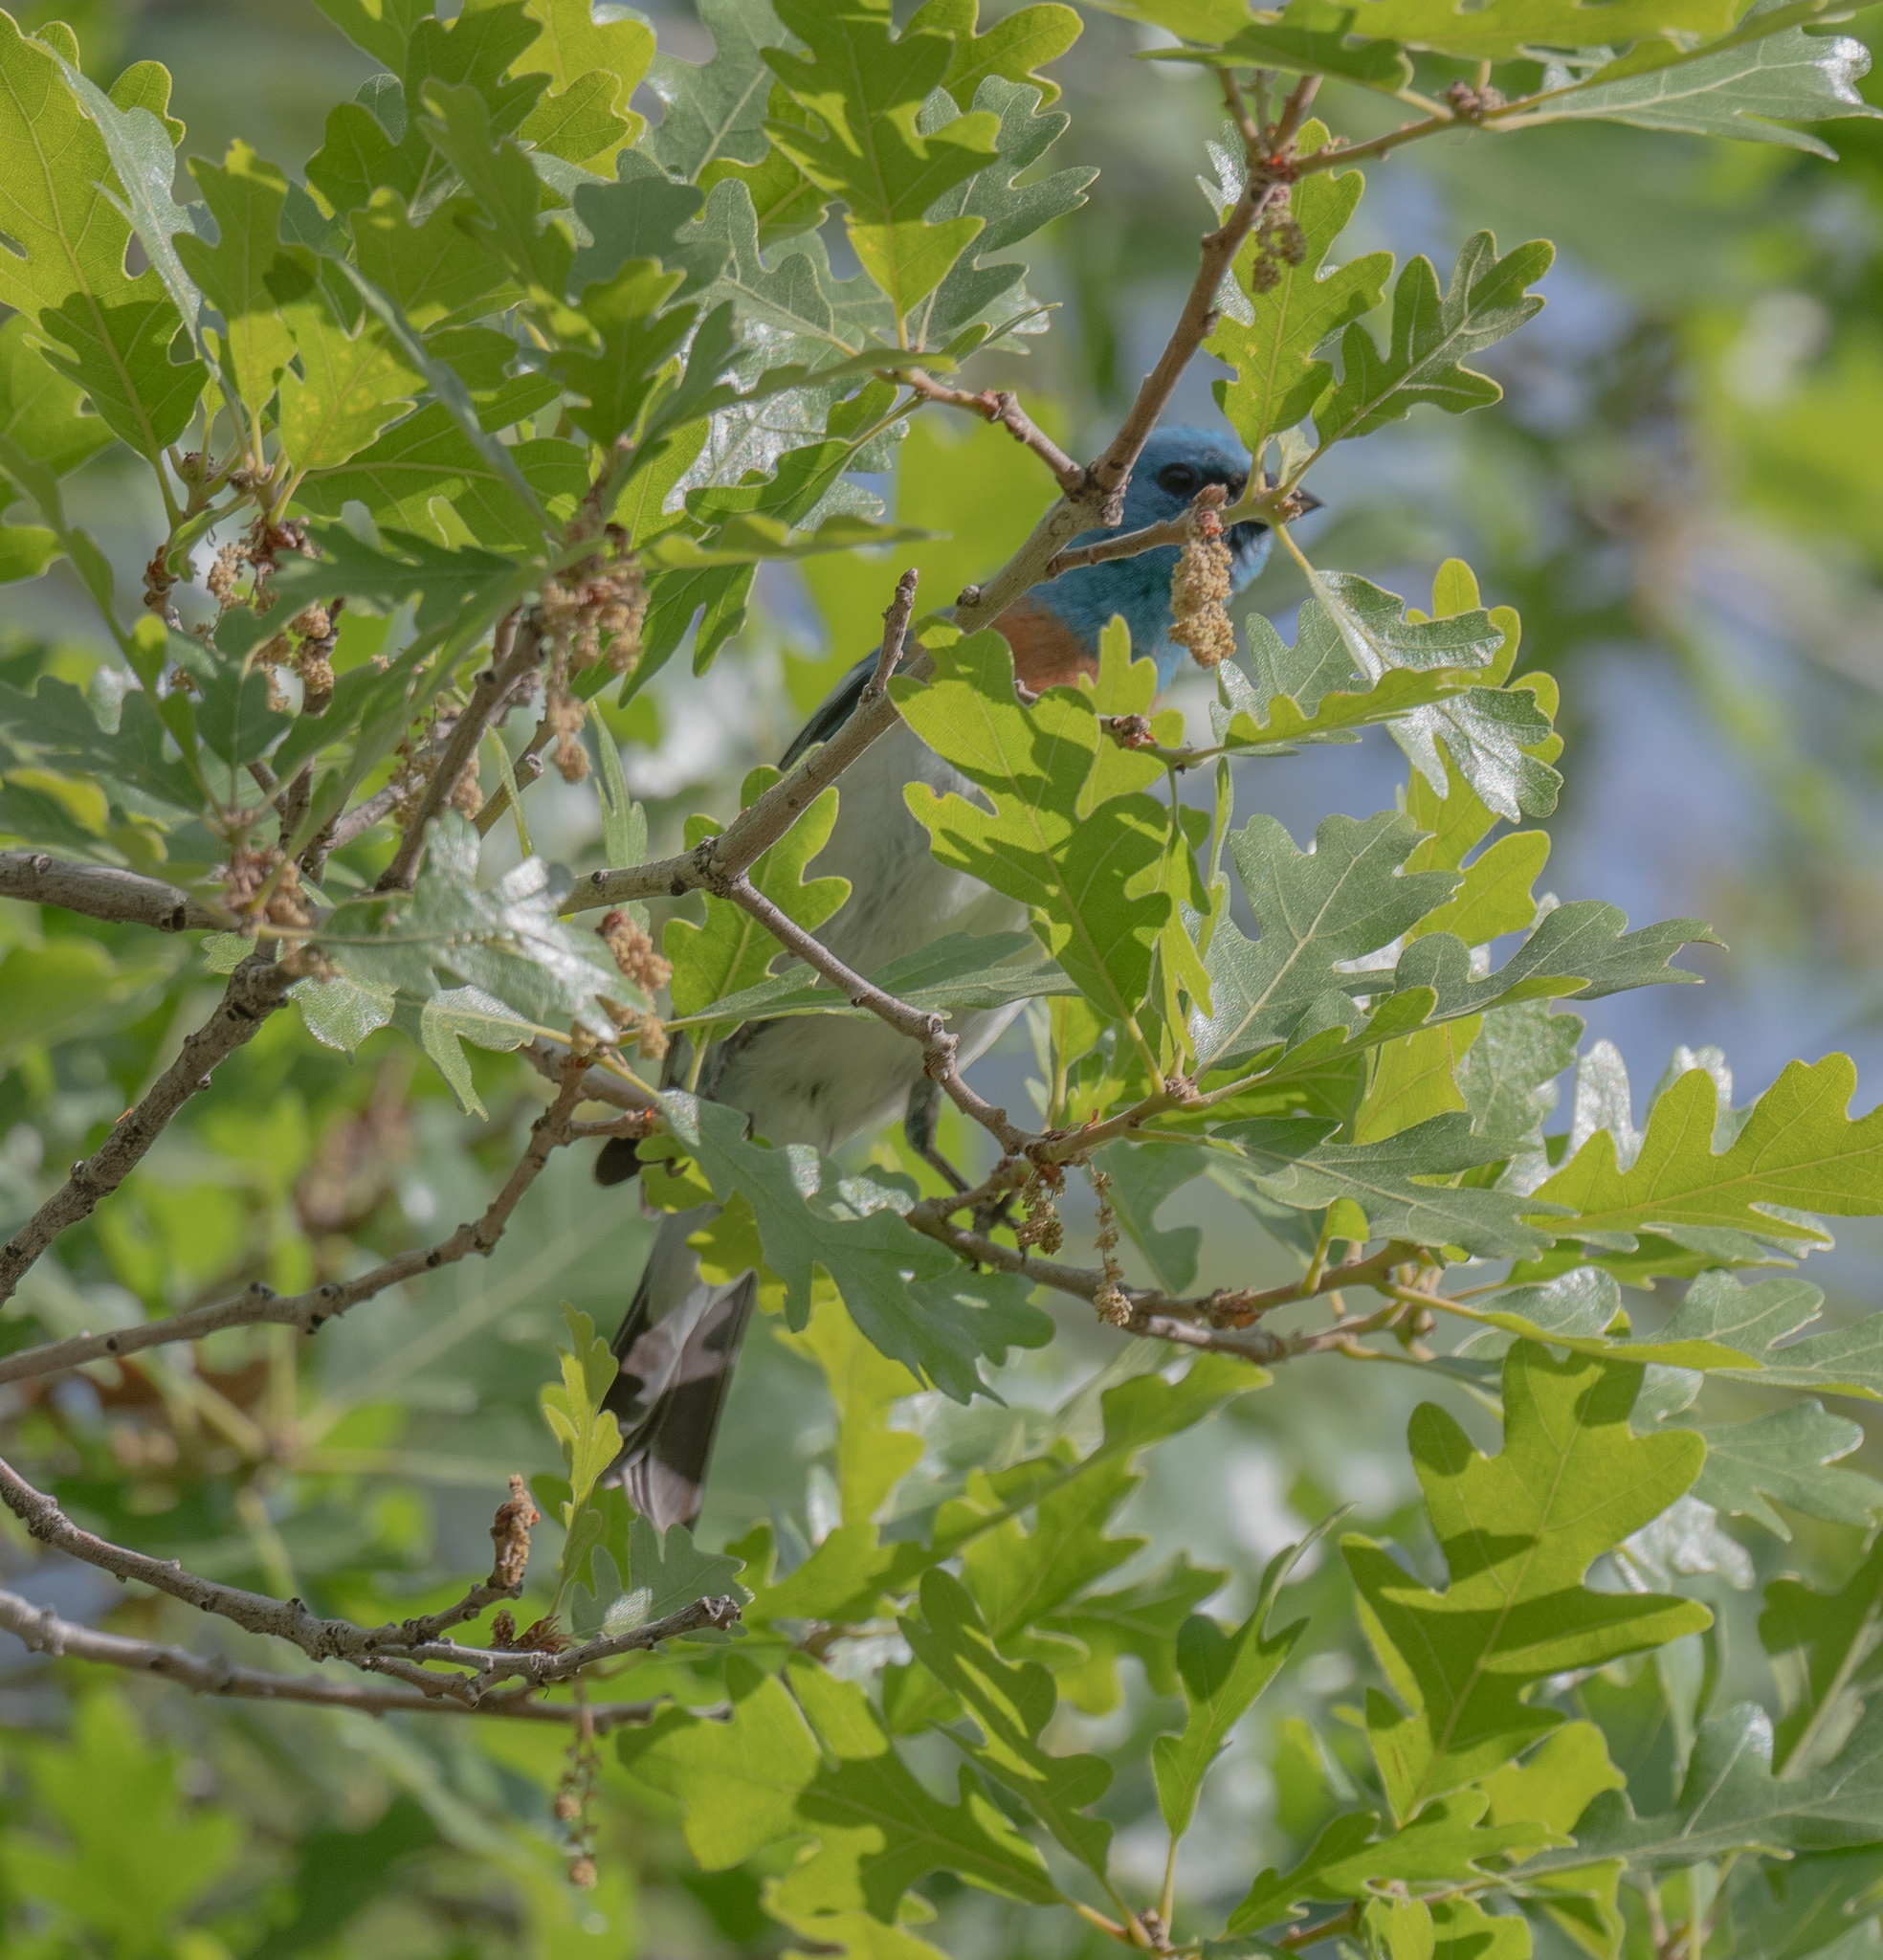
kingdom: Animalia
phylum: Chordata
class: Aves
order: Passeriformes
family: Cardinalidae
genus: Passerina
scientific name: Passerina amoena
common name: Lazuli bunting
